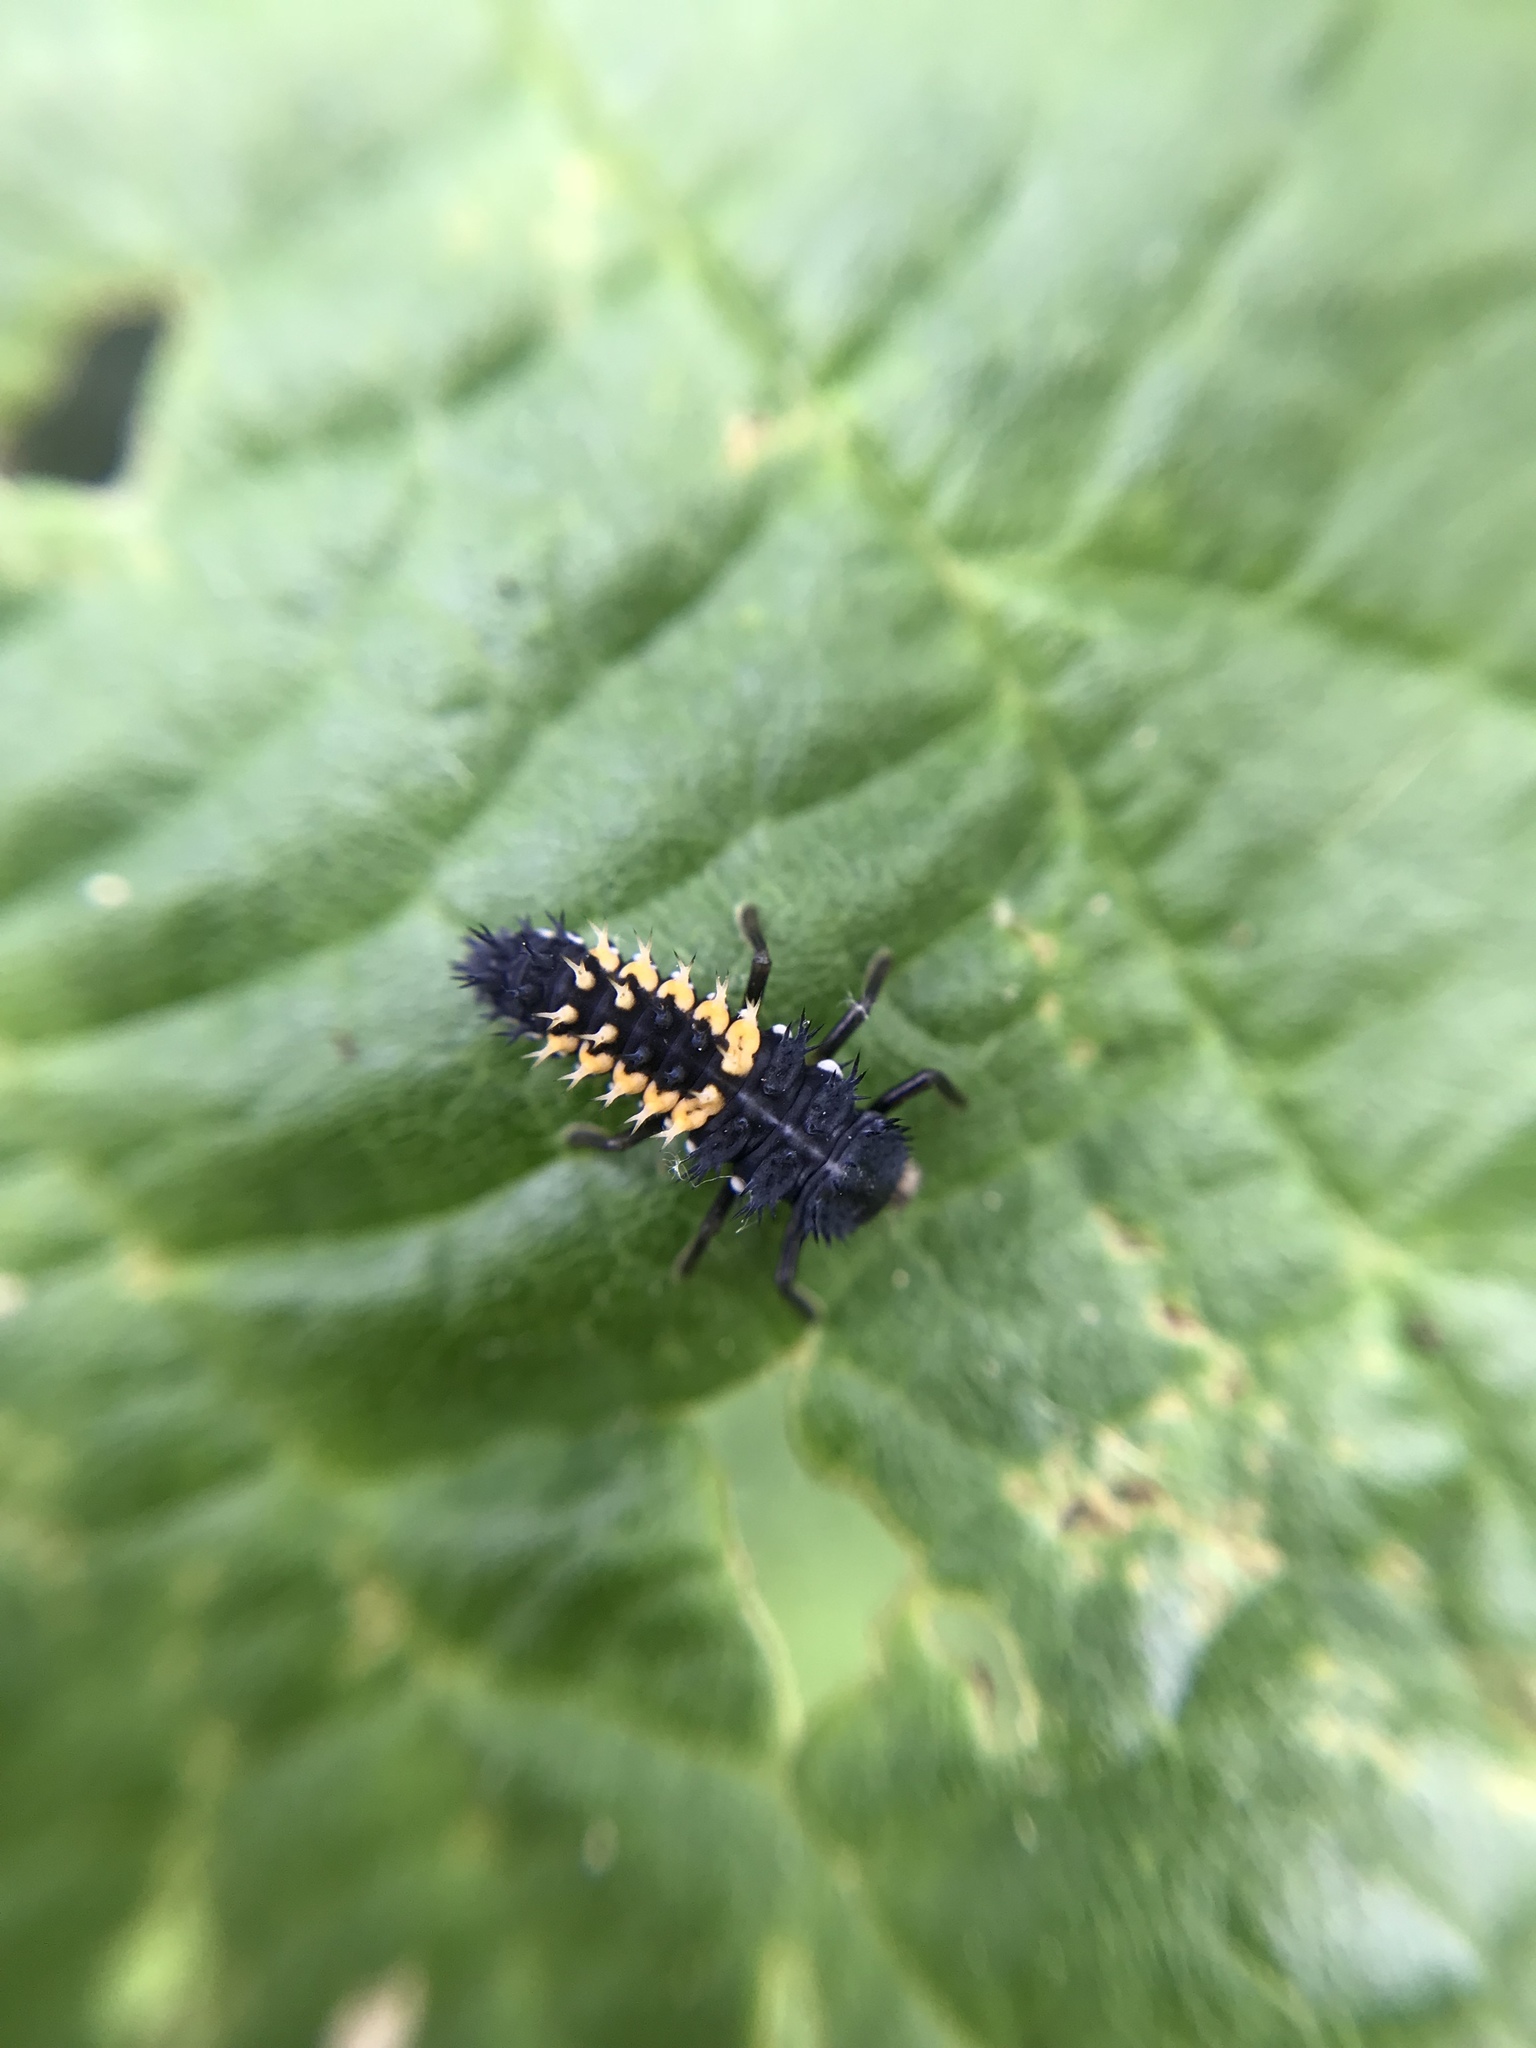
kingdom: Animalia
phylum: Arthropoda
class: Insecta
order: Coleoptera
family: Coccinellidae
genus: Harmonia
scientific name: Harmonia axyridis
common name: Harlequin ladybird
